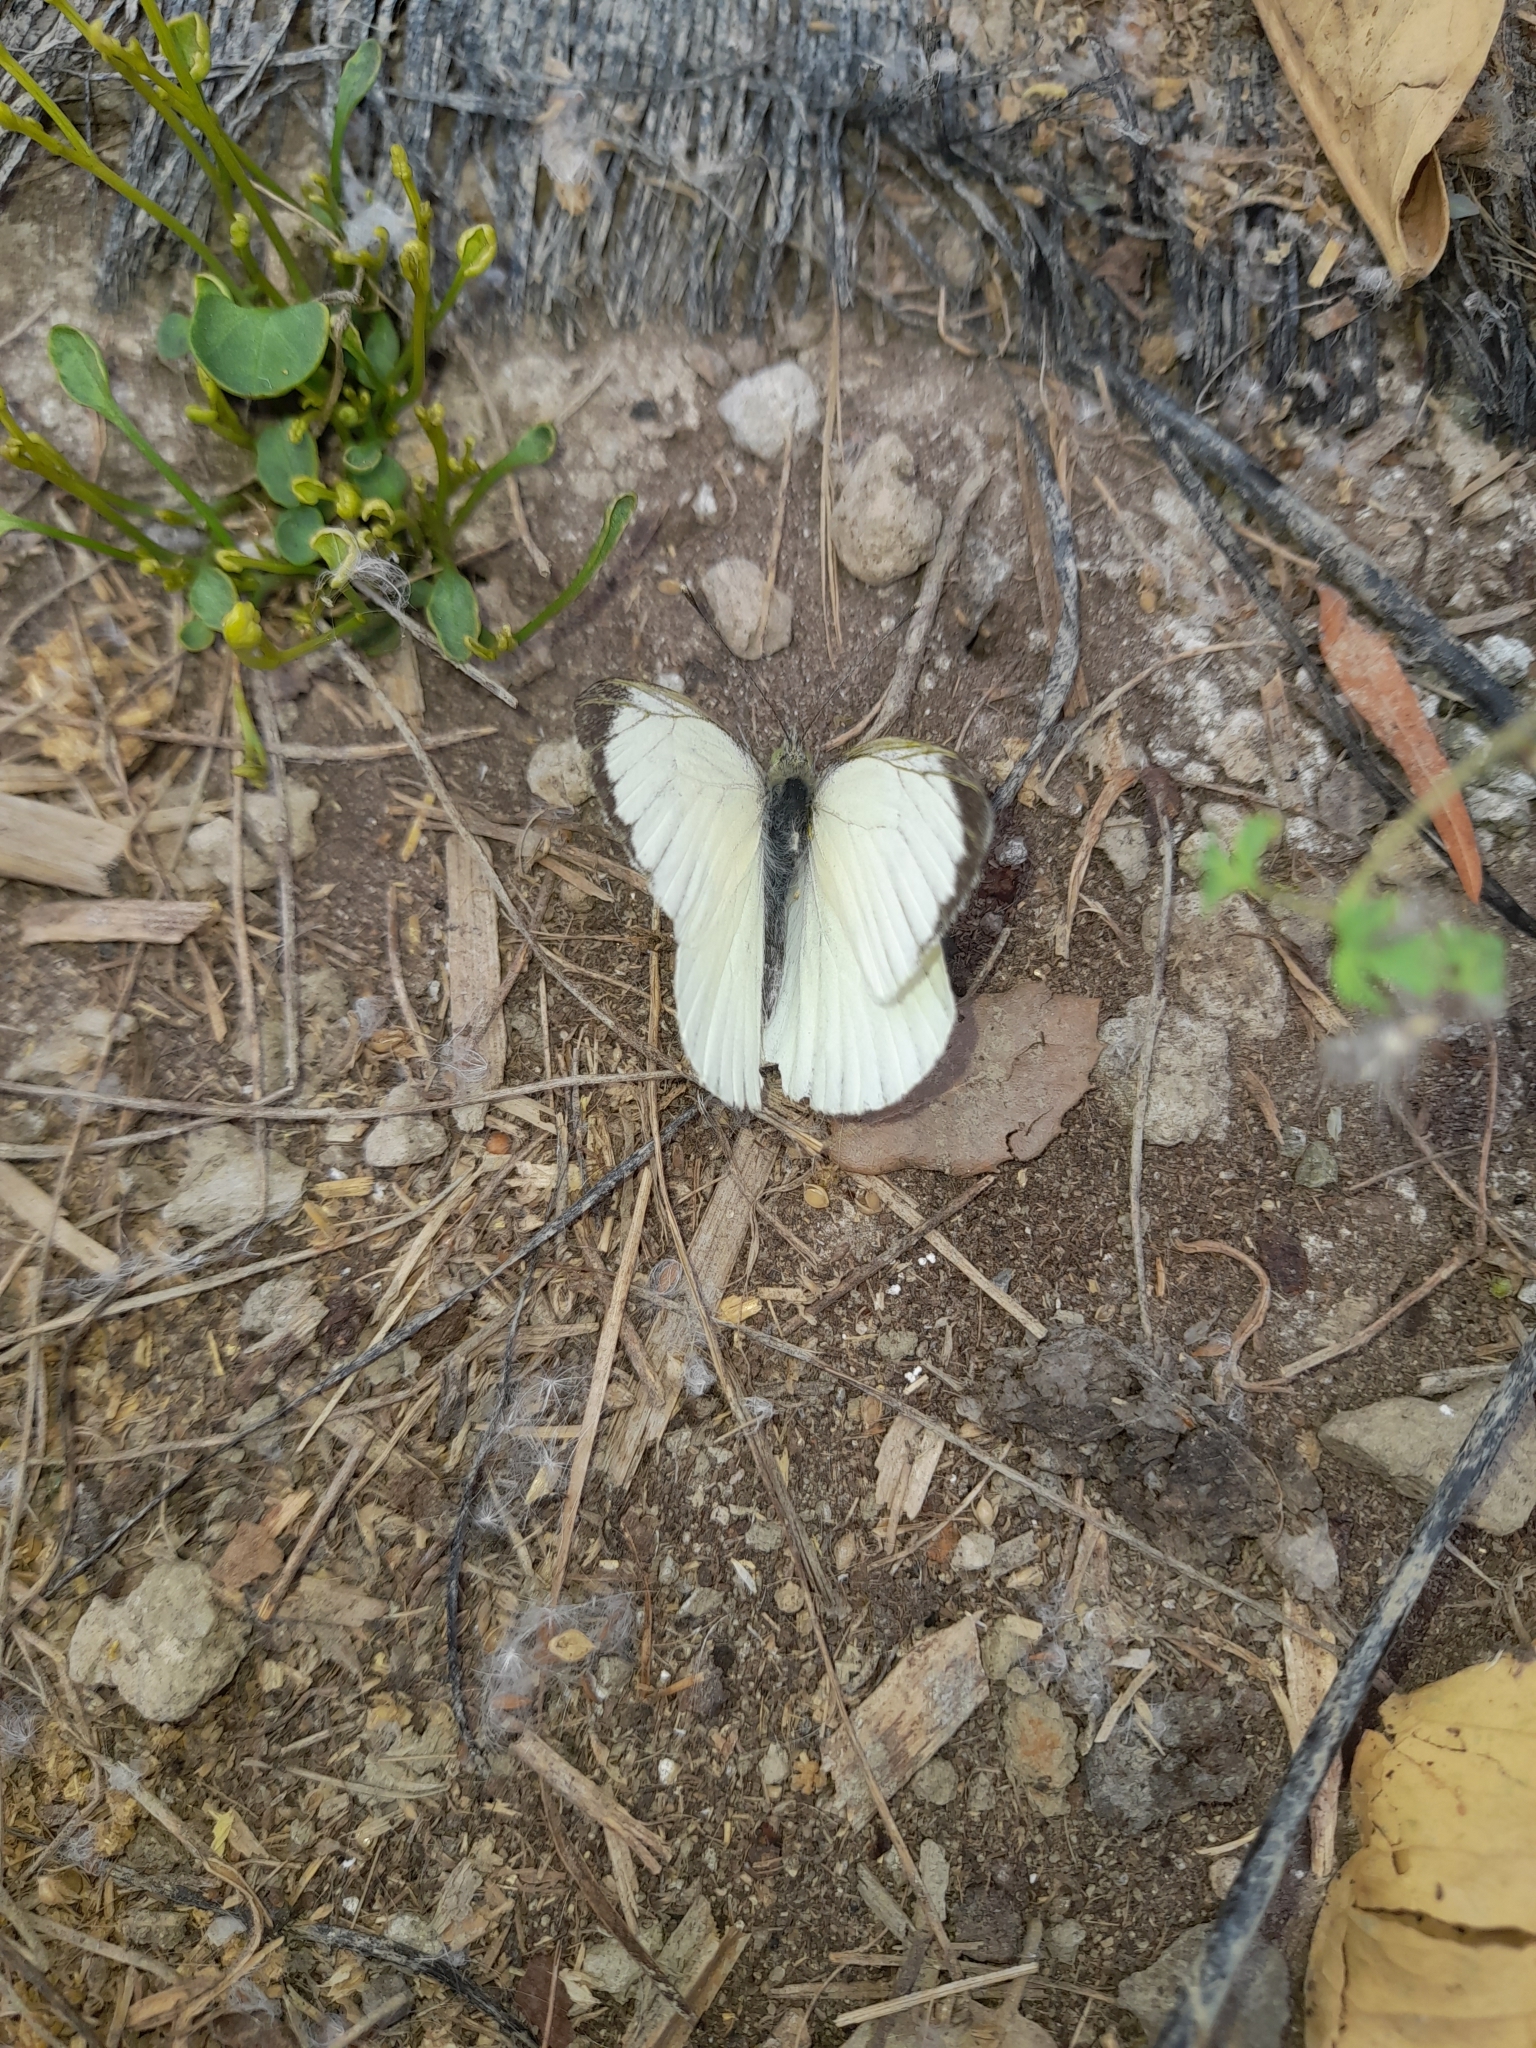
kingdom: Animalia
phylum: Arthropoda
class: Insecta
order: Lepidoptera
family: Pieridae
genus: Pieris
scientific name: Pieris brassicae
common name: Large white
